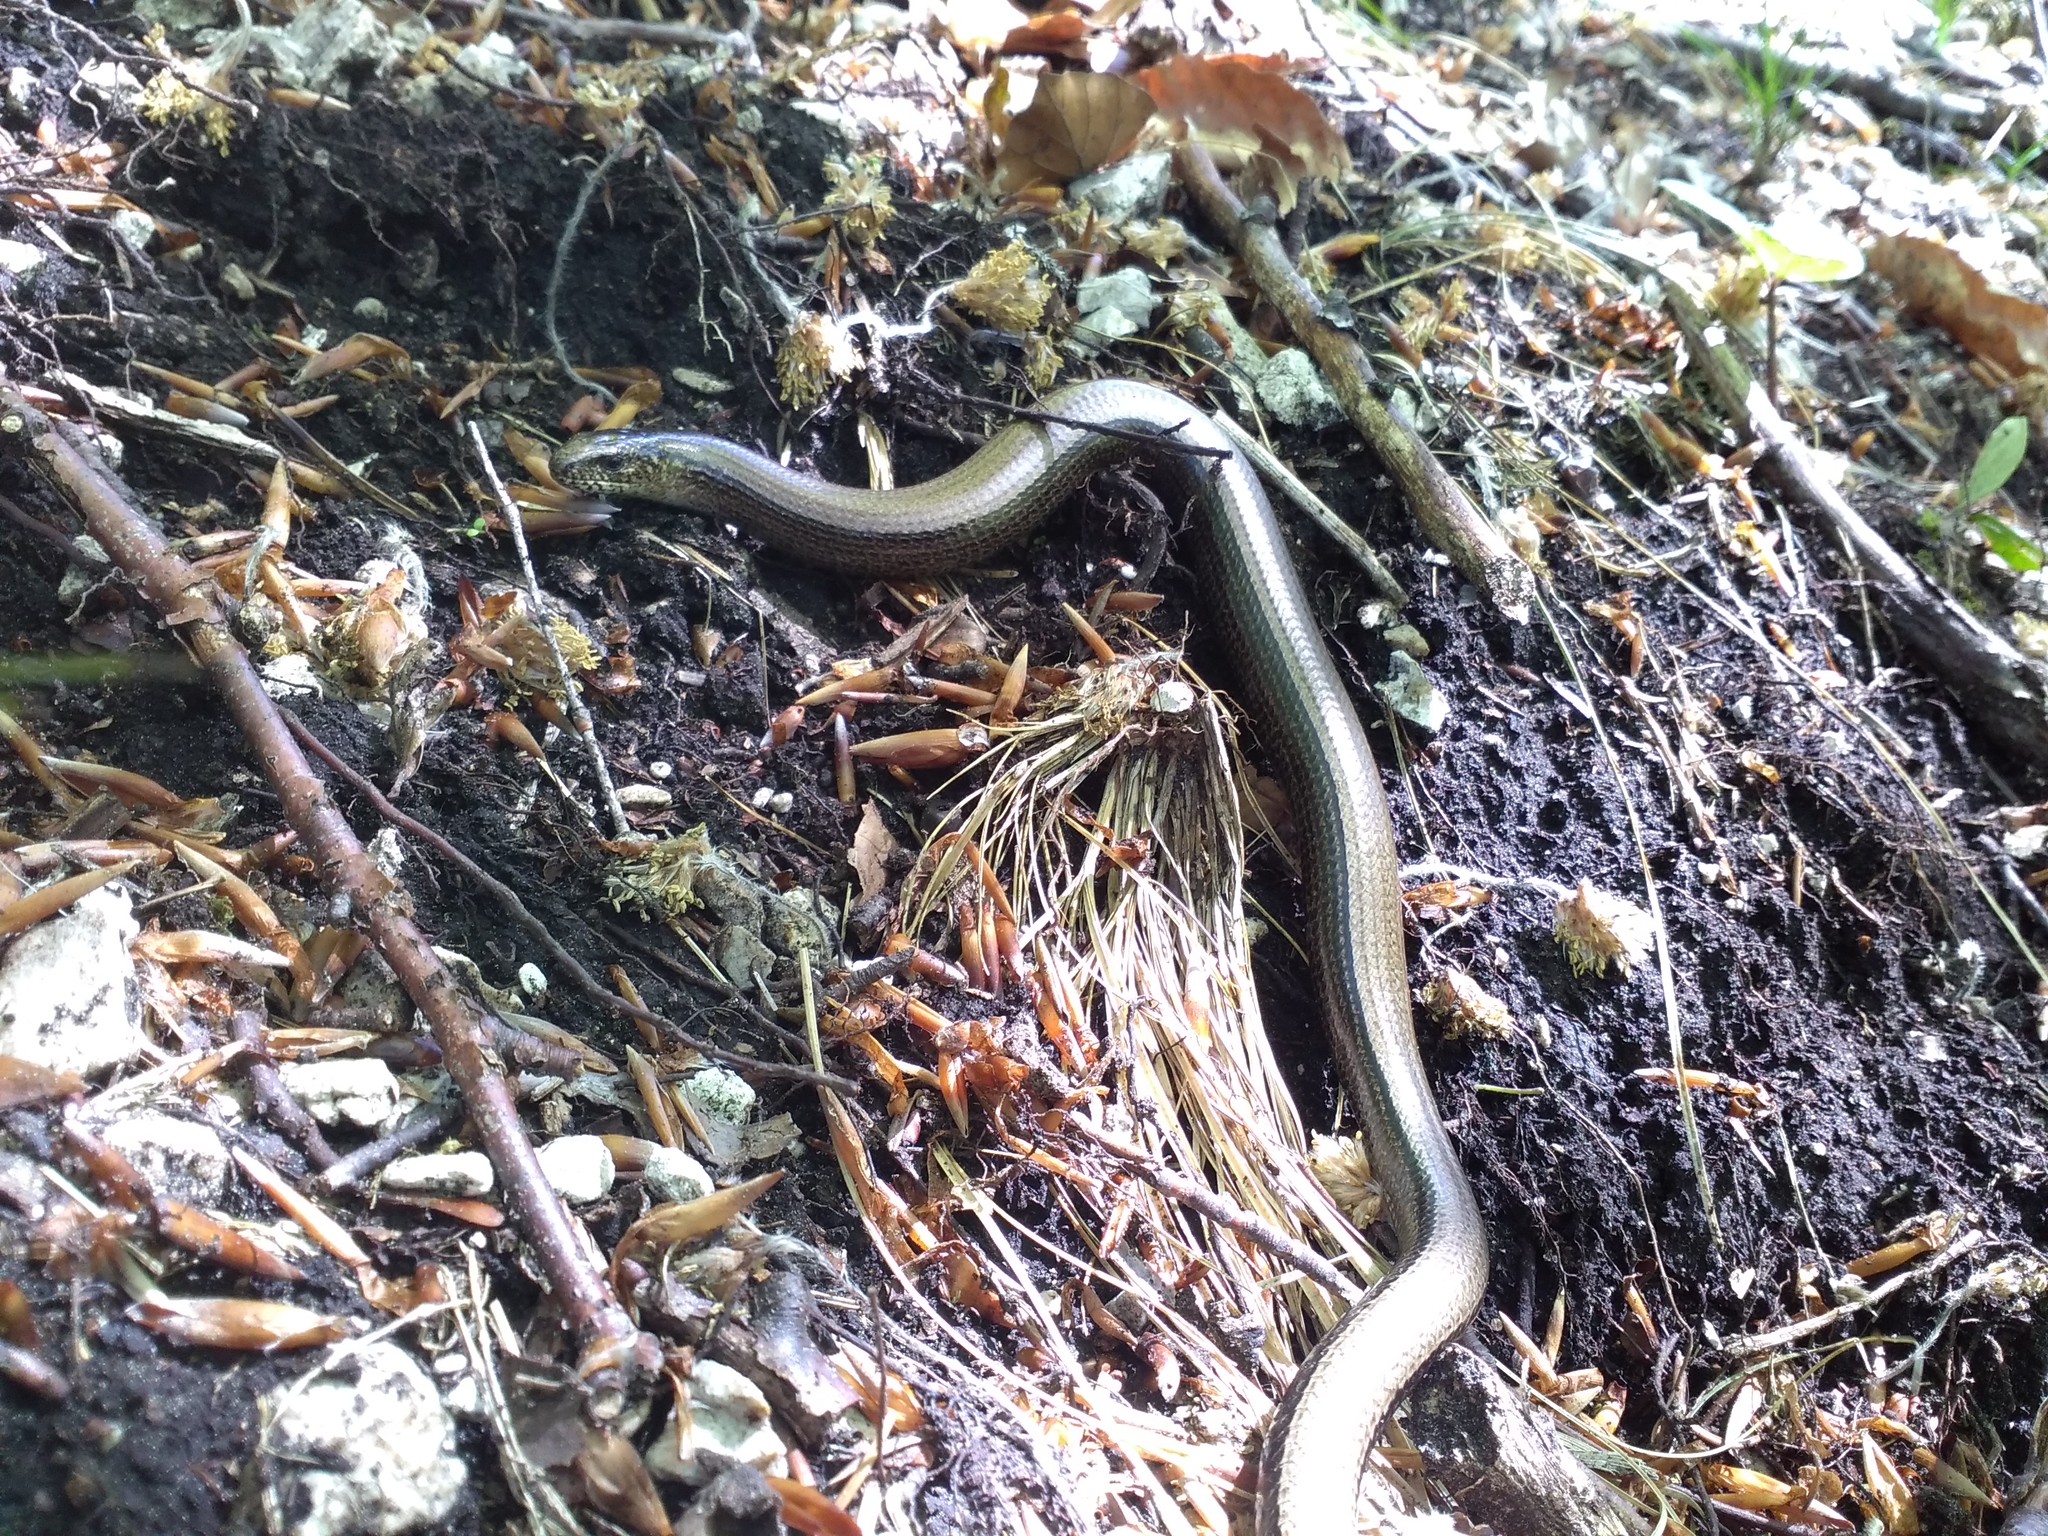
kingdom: Animalia
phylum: Chordata
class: Squamata
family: Anguidae
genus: Anguis
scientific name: Anguis fragilis
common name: Slow worm
